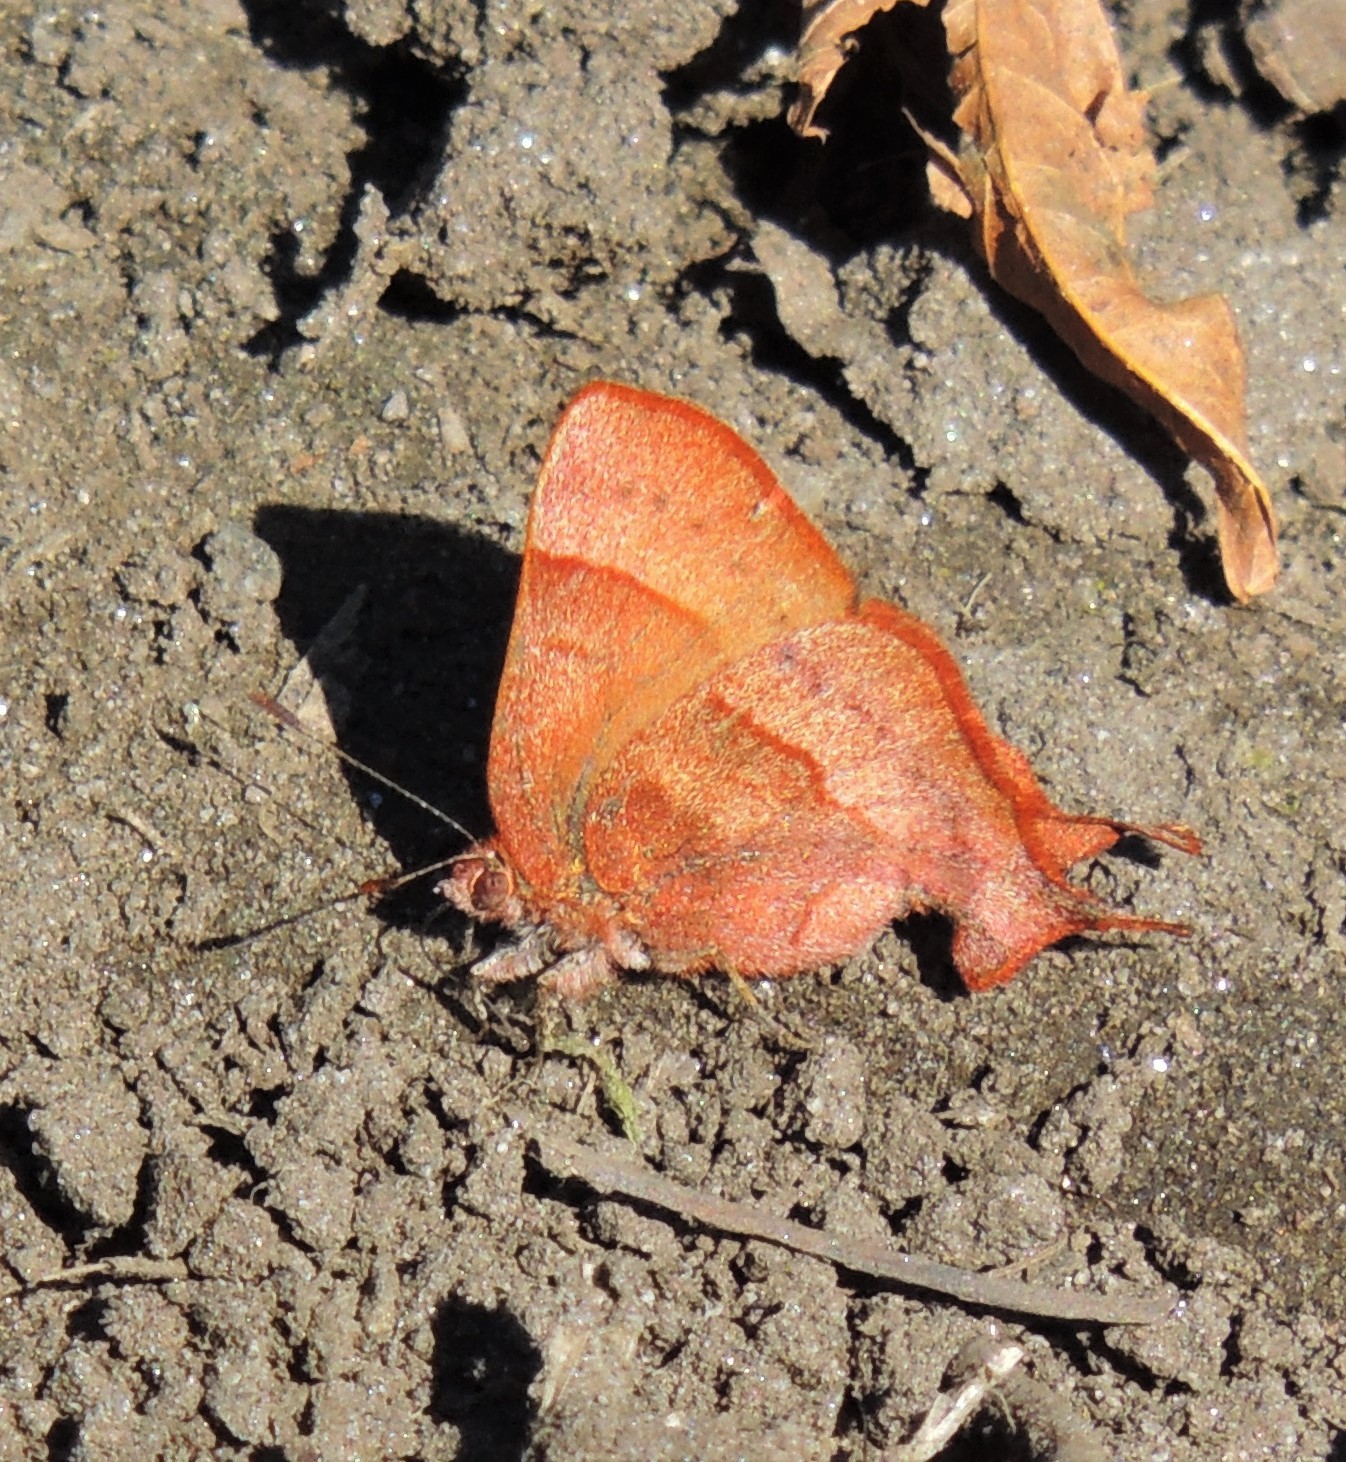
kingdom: Animalia
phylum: Arthropoda
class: Insecta
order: Lepidoptera
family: Lycaenidae
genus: Penaincisalia
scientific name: Penaincisalia
